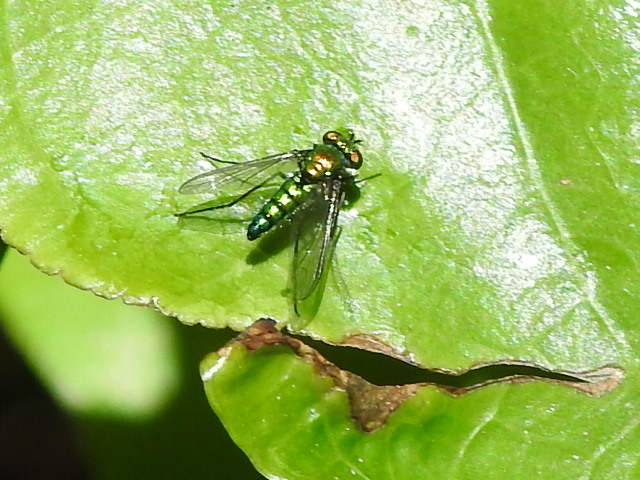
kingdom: Animalia
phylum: Arthropoda
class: Insecta
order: Diptera
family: Dolichopodidae
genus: Condylostylus
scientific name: Condylostylus longicornis
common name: Long-legged fly
